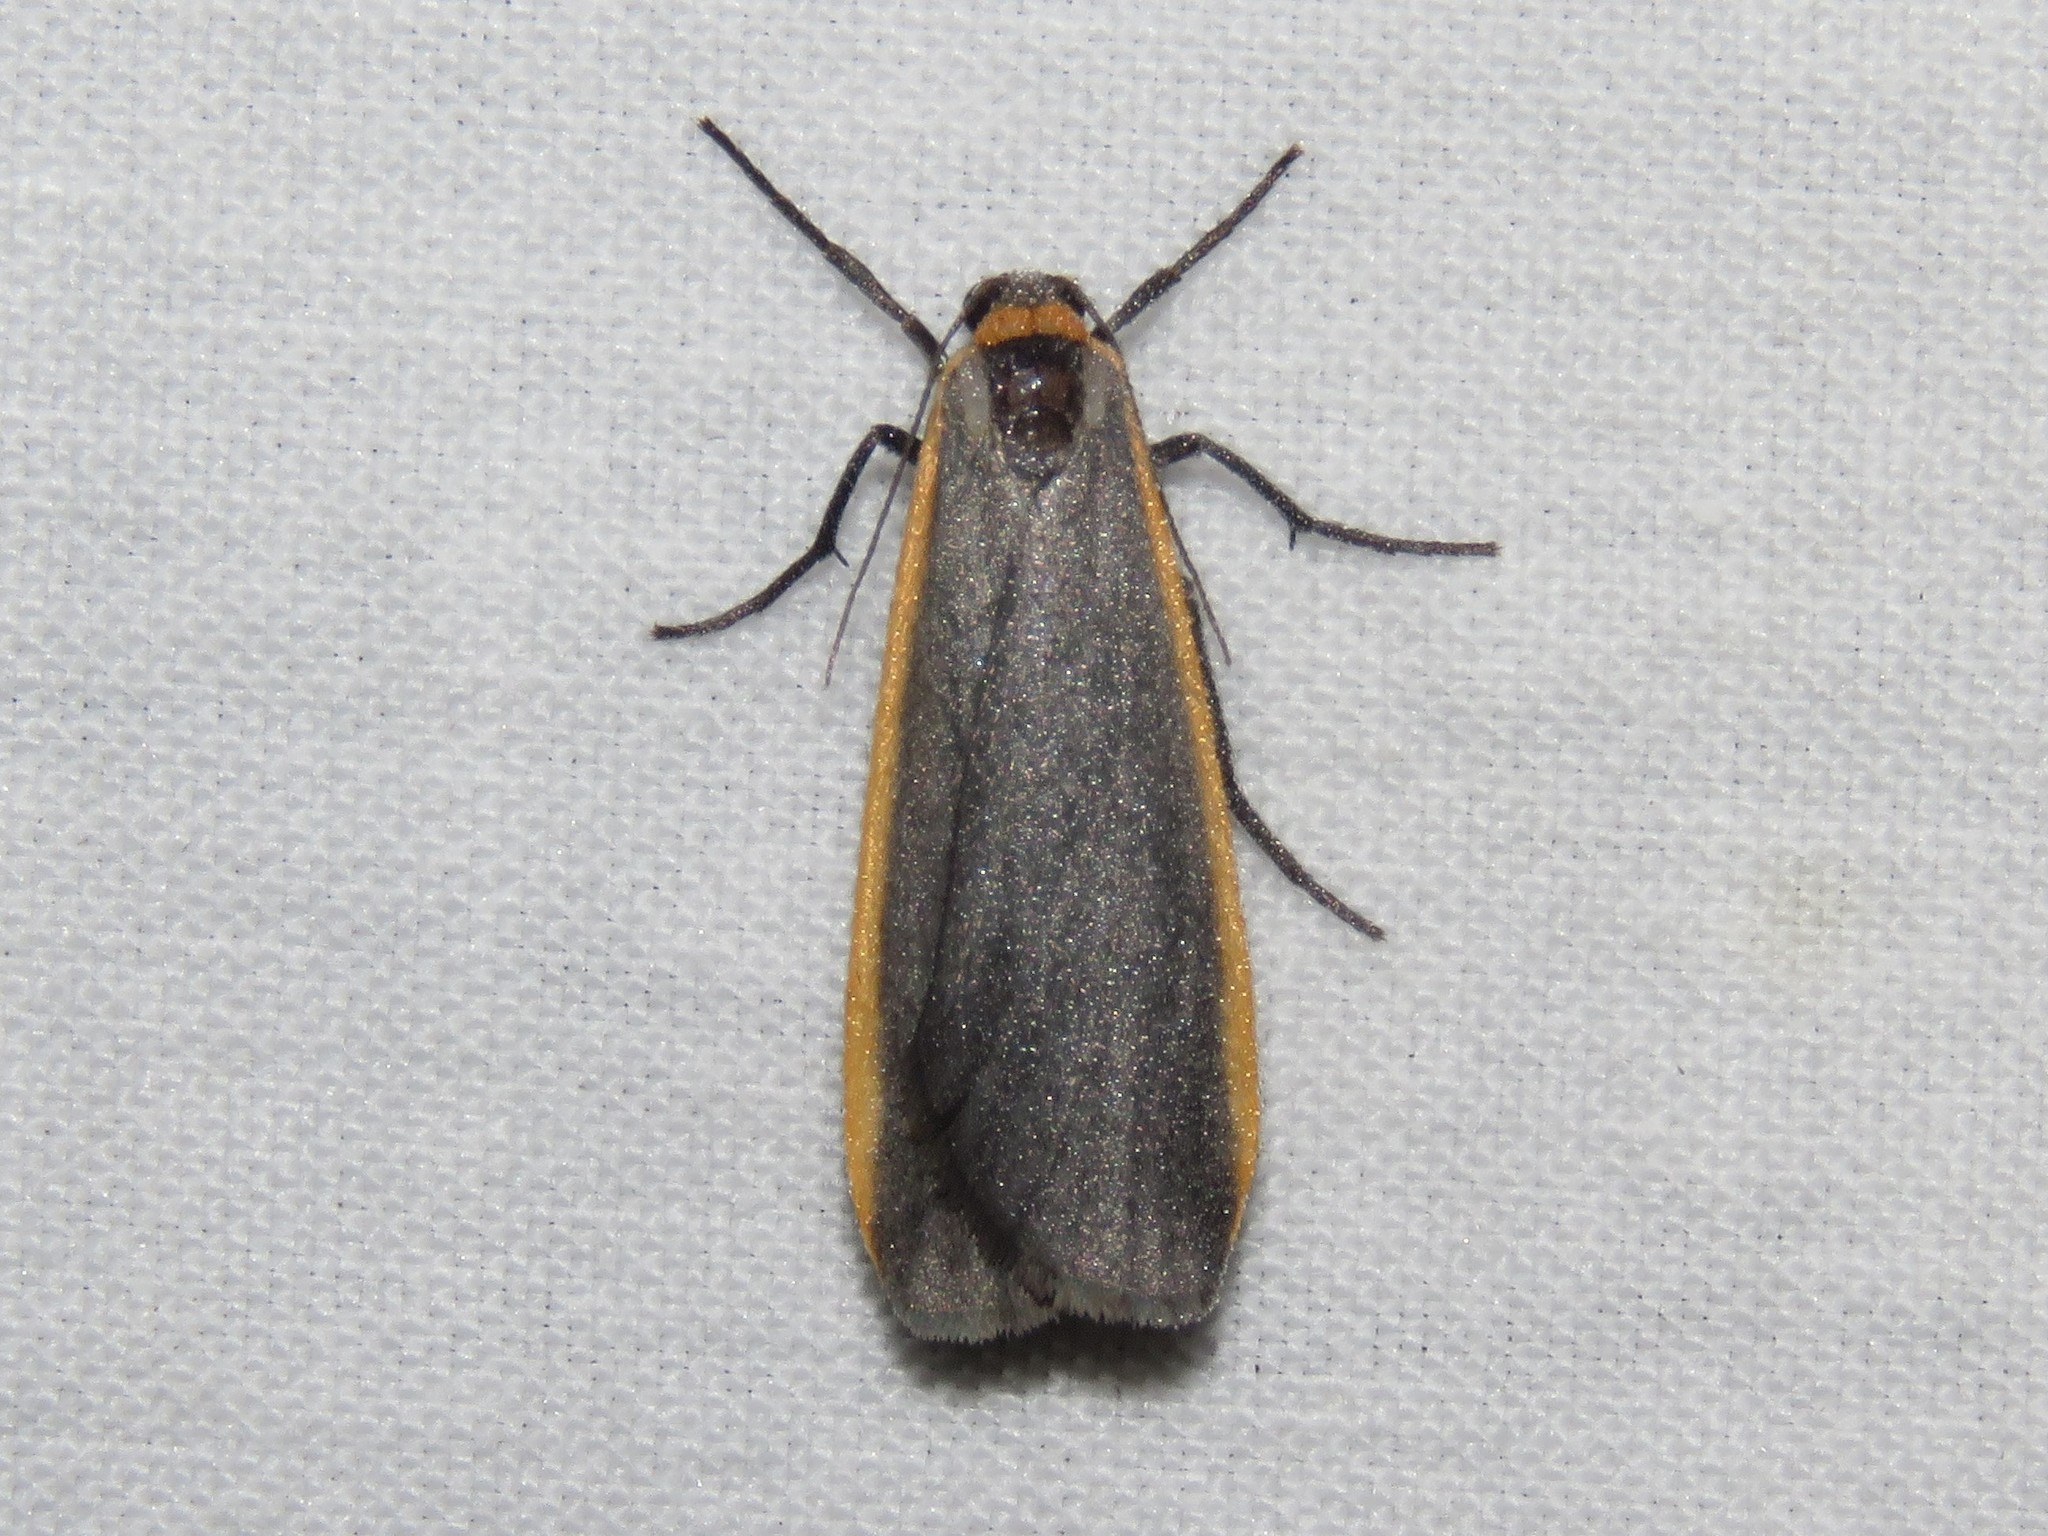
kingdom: Animalia
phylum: Arthropoda
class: Insecta
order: Lepidoptera
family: Erebidae
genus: Manulea
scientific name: Manulea bicolor
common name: Bicolored moth
